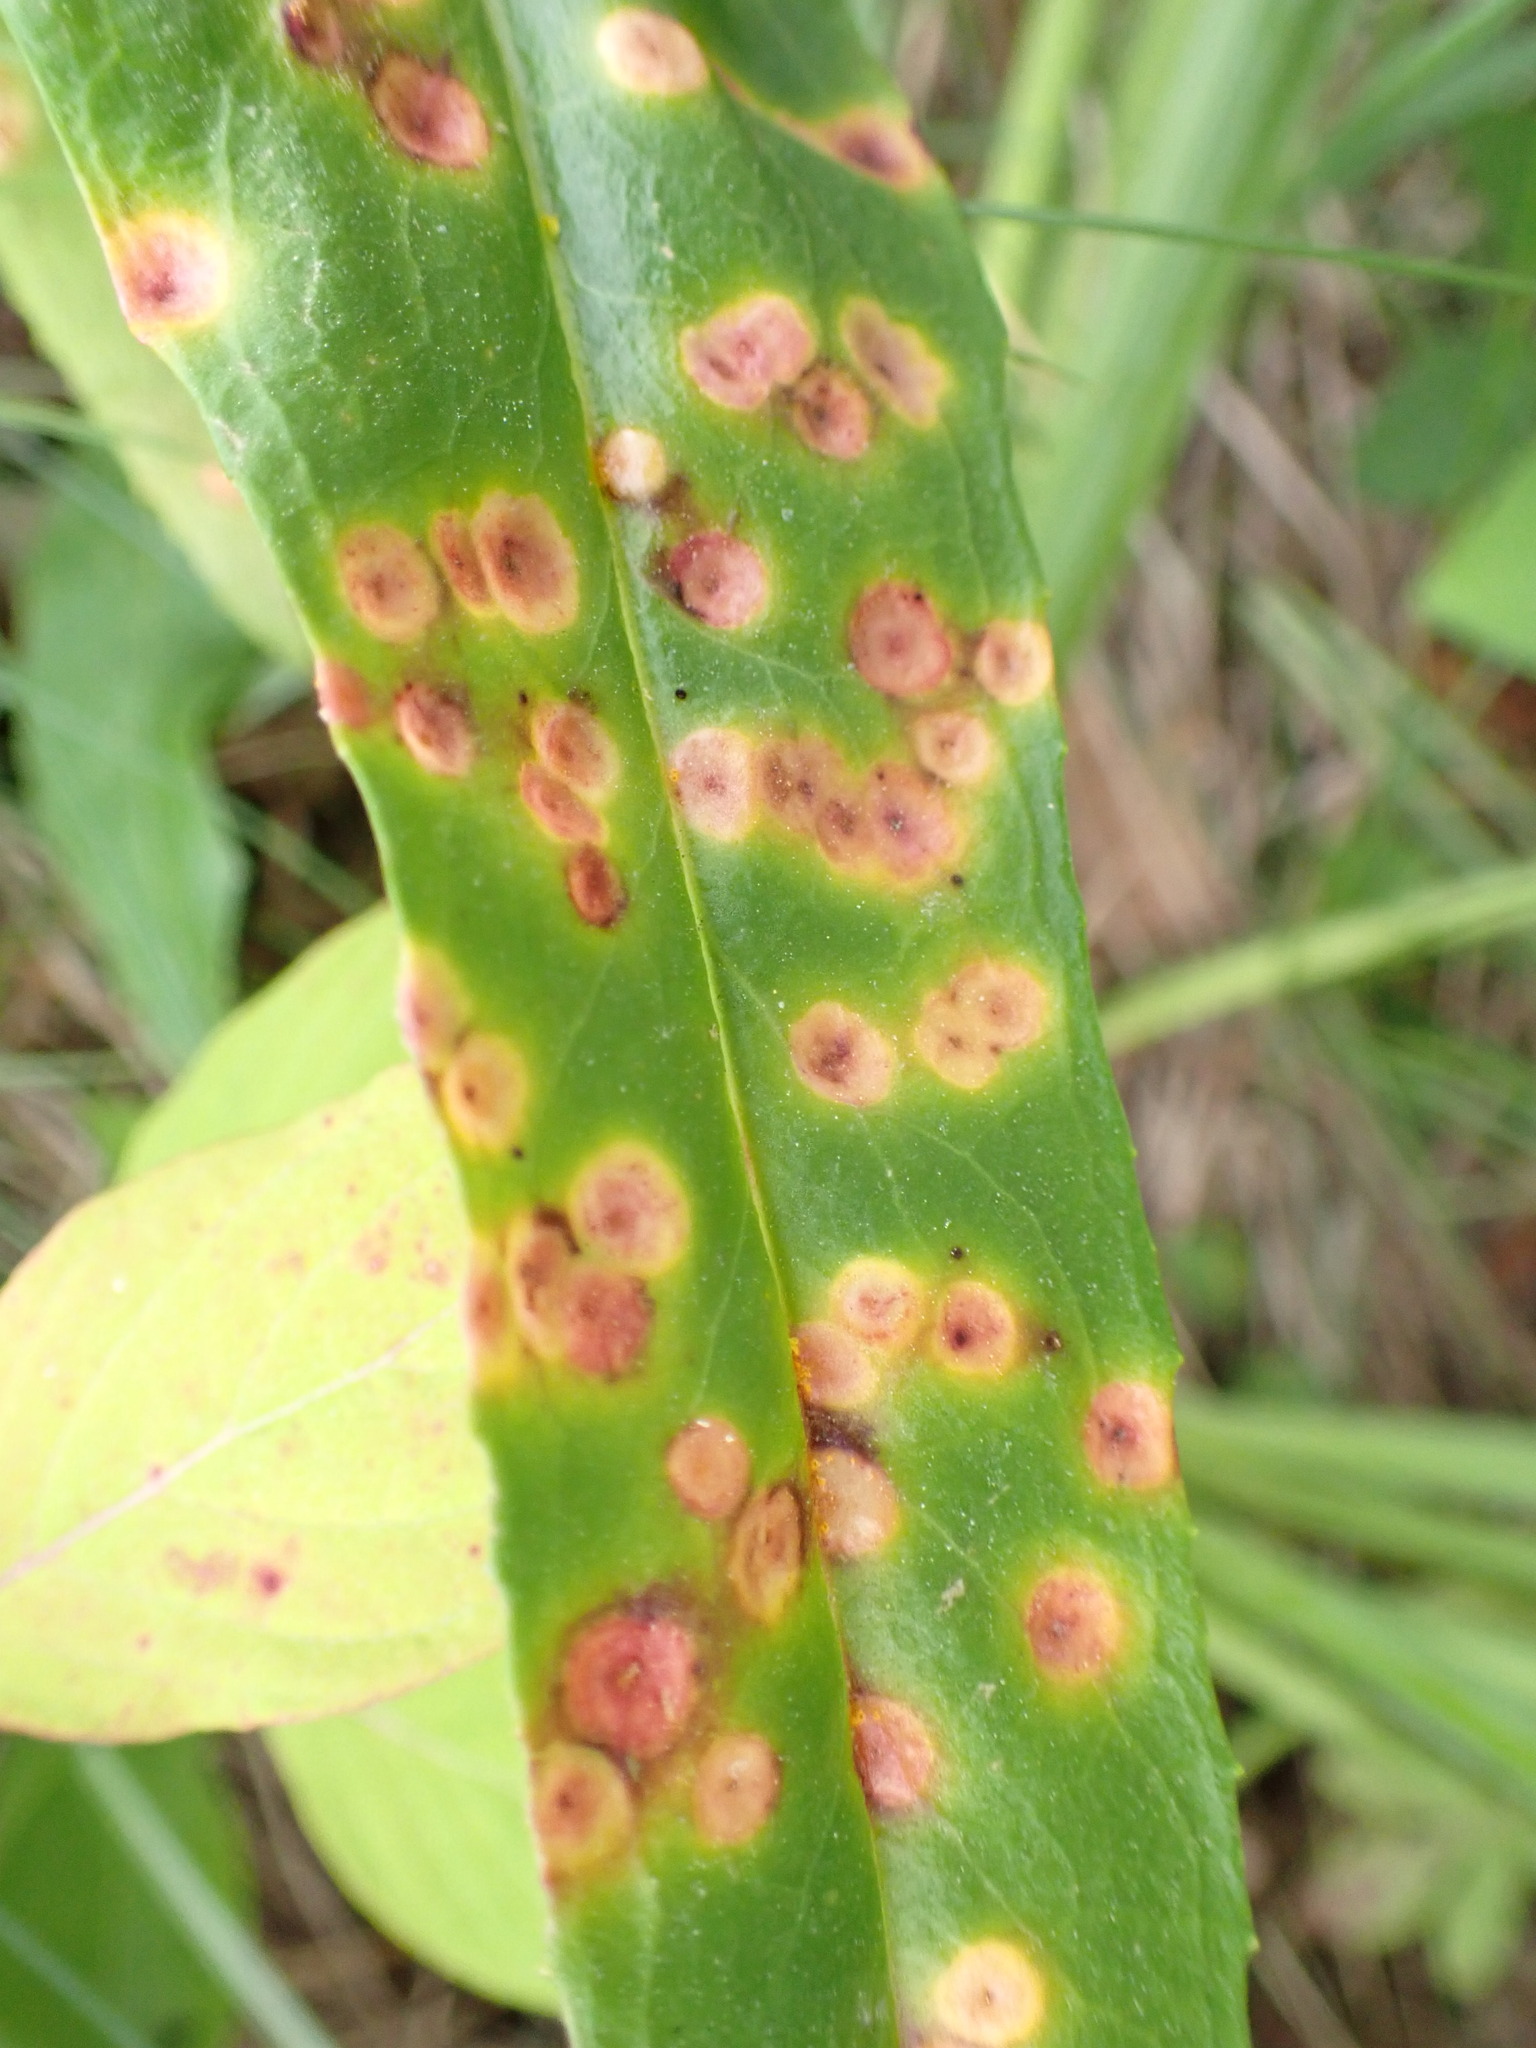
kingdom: Fungi
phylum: Basidiomycota
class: Pucciniomycetes
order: Pucciniales
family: Pucciniaceae
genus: Puccinia
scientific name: Puccinia andropogonis
